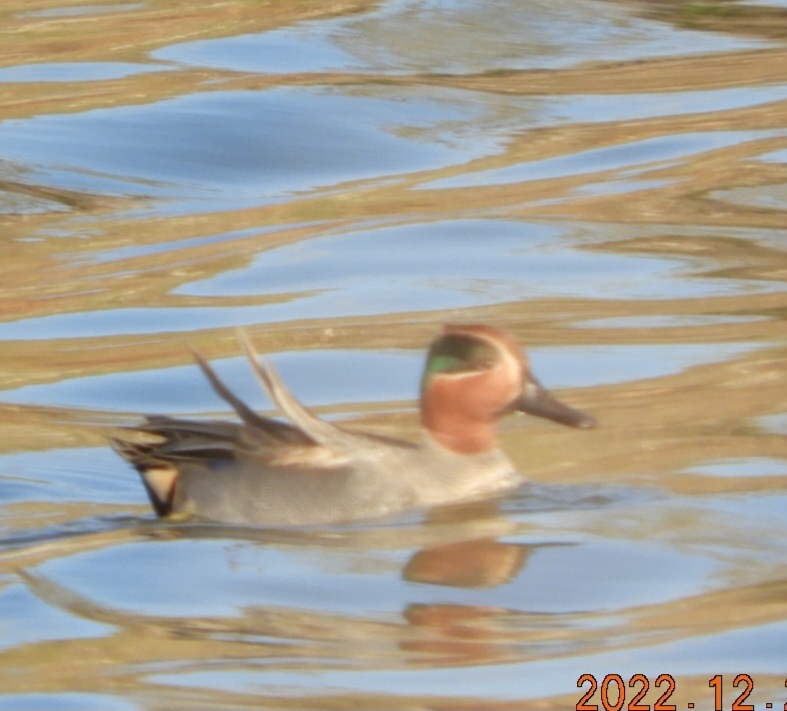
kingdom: Animalia
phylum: Chordata
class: Aves
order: Anseriformes
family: Anatidae
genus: Anas
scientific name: Anas crecca
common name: Eurasian teal
